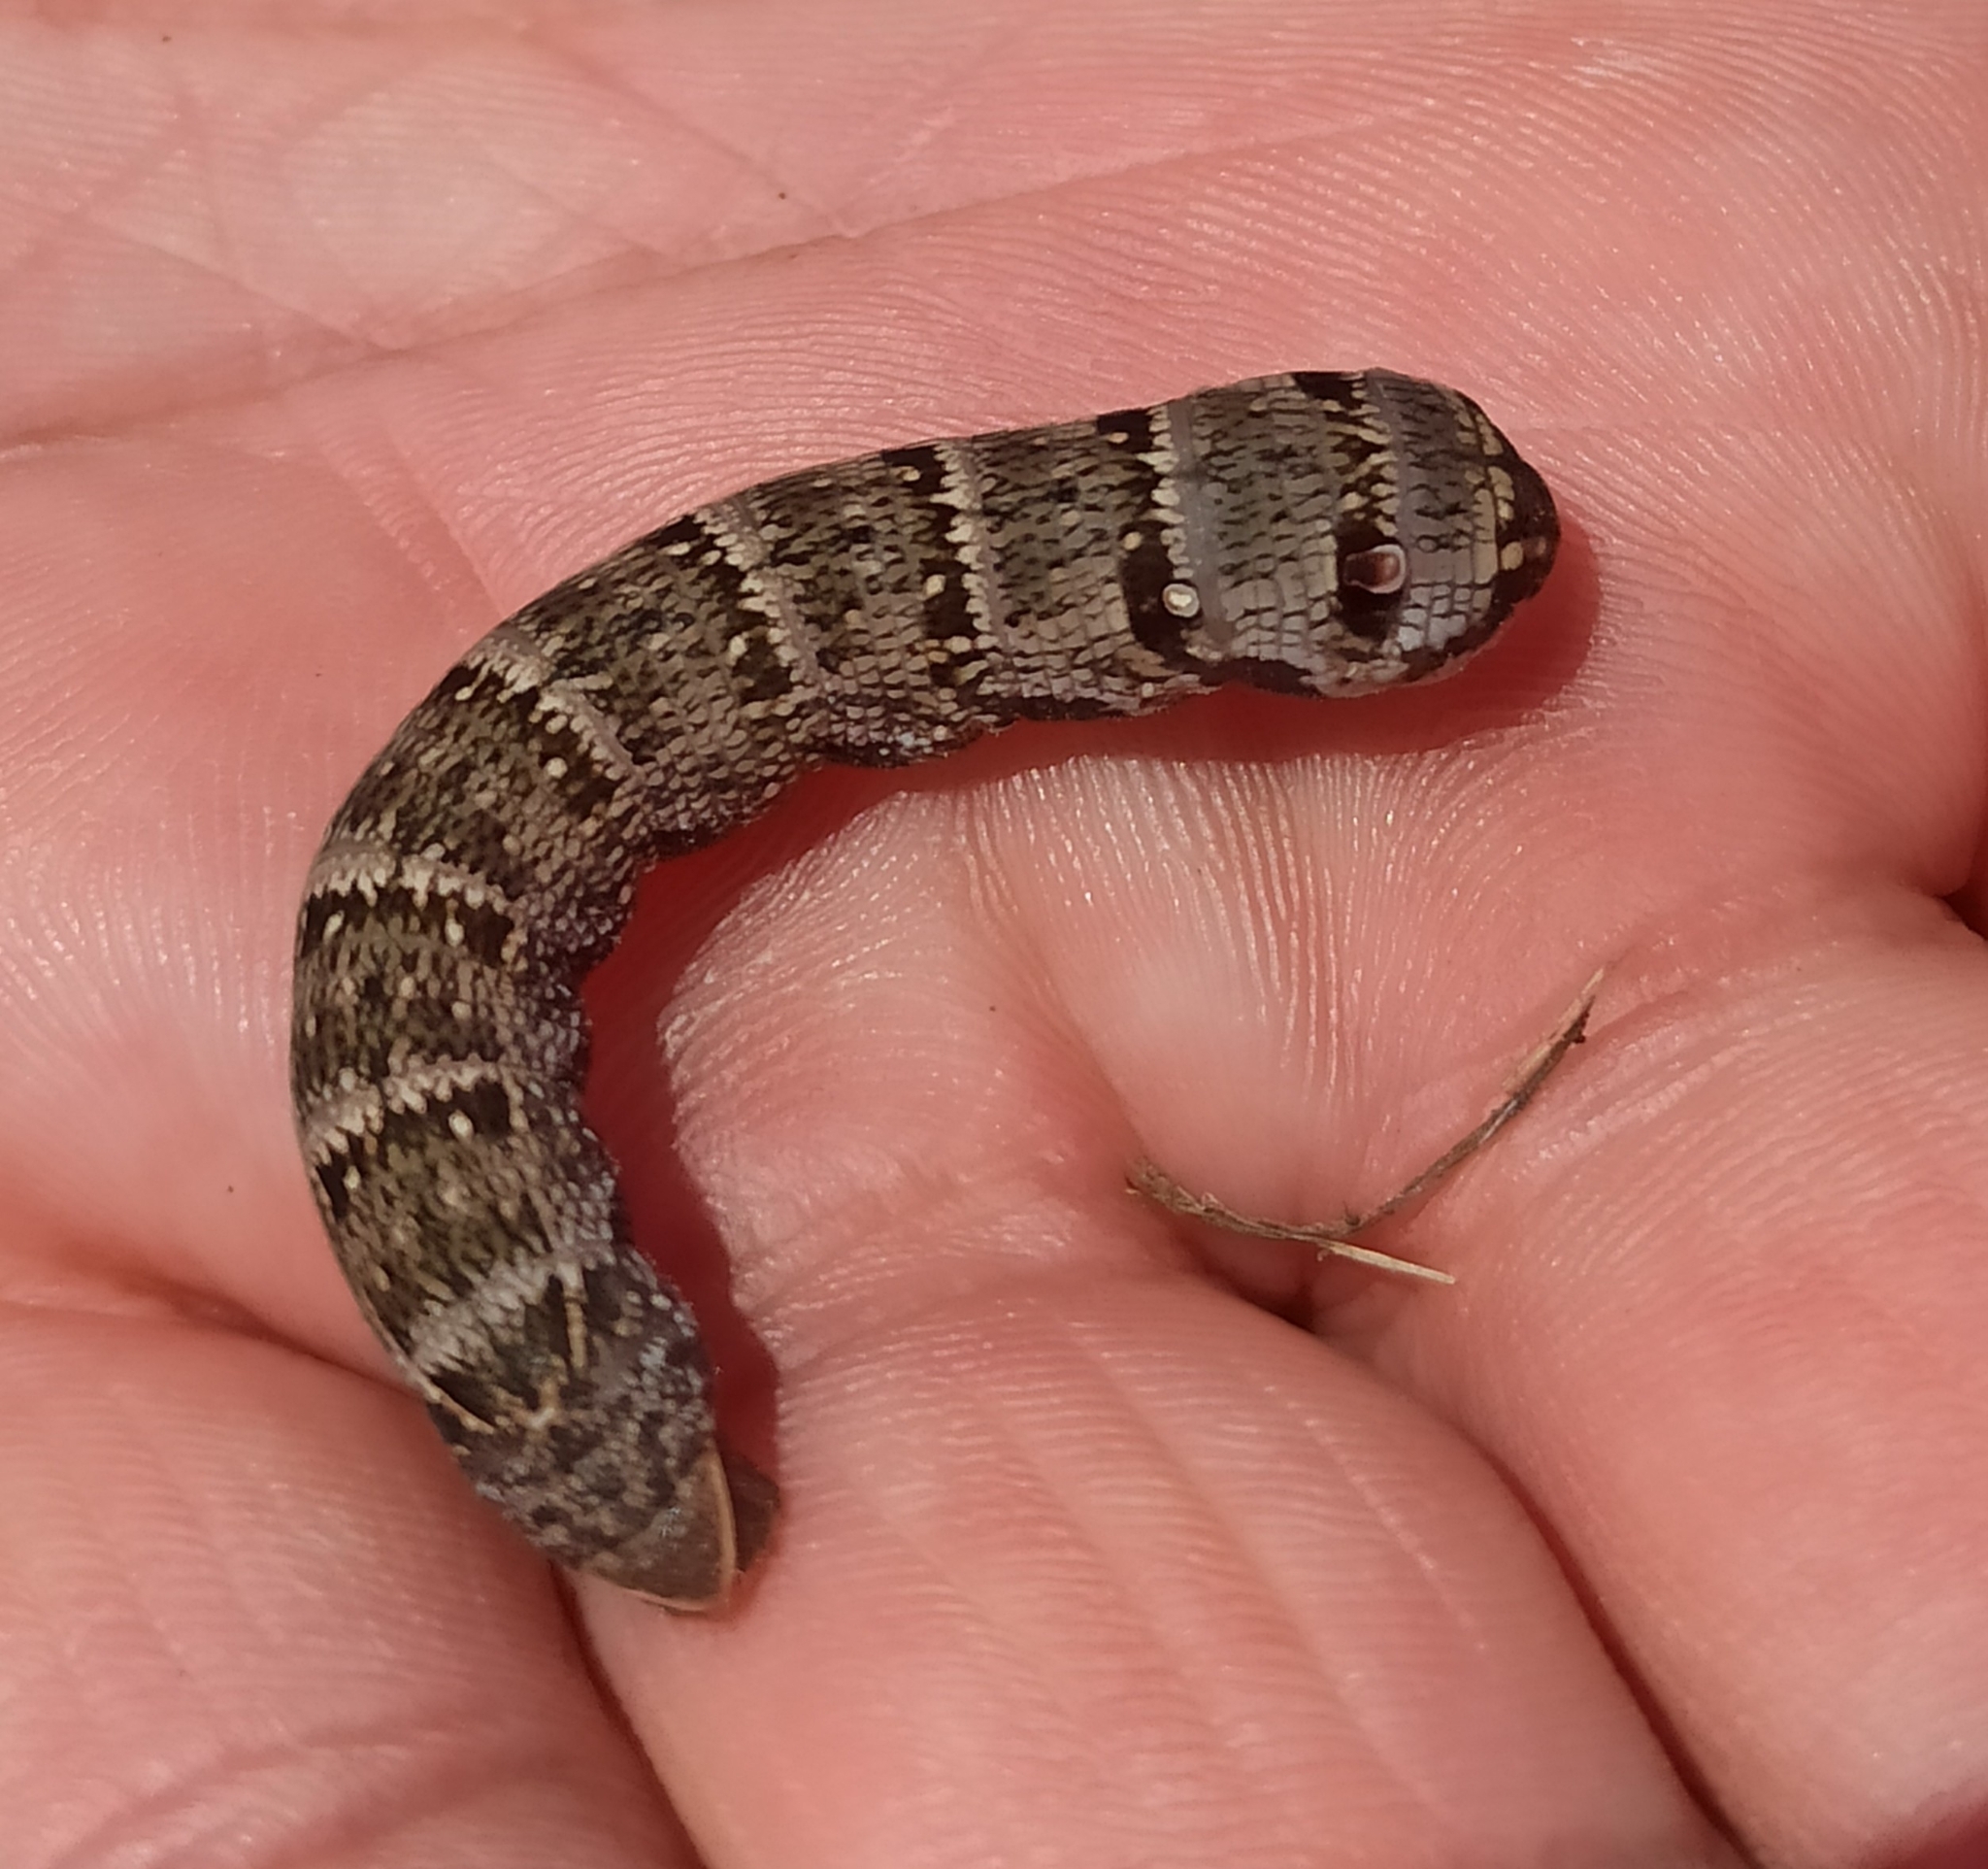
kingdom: Animalia
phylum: Arthropoda
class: Insecta
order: Lepidoptera
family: Sphingidae
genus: Deilephila
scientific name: Deilephila porcellus
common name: Small elephant hawk-moth
